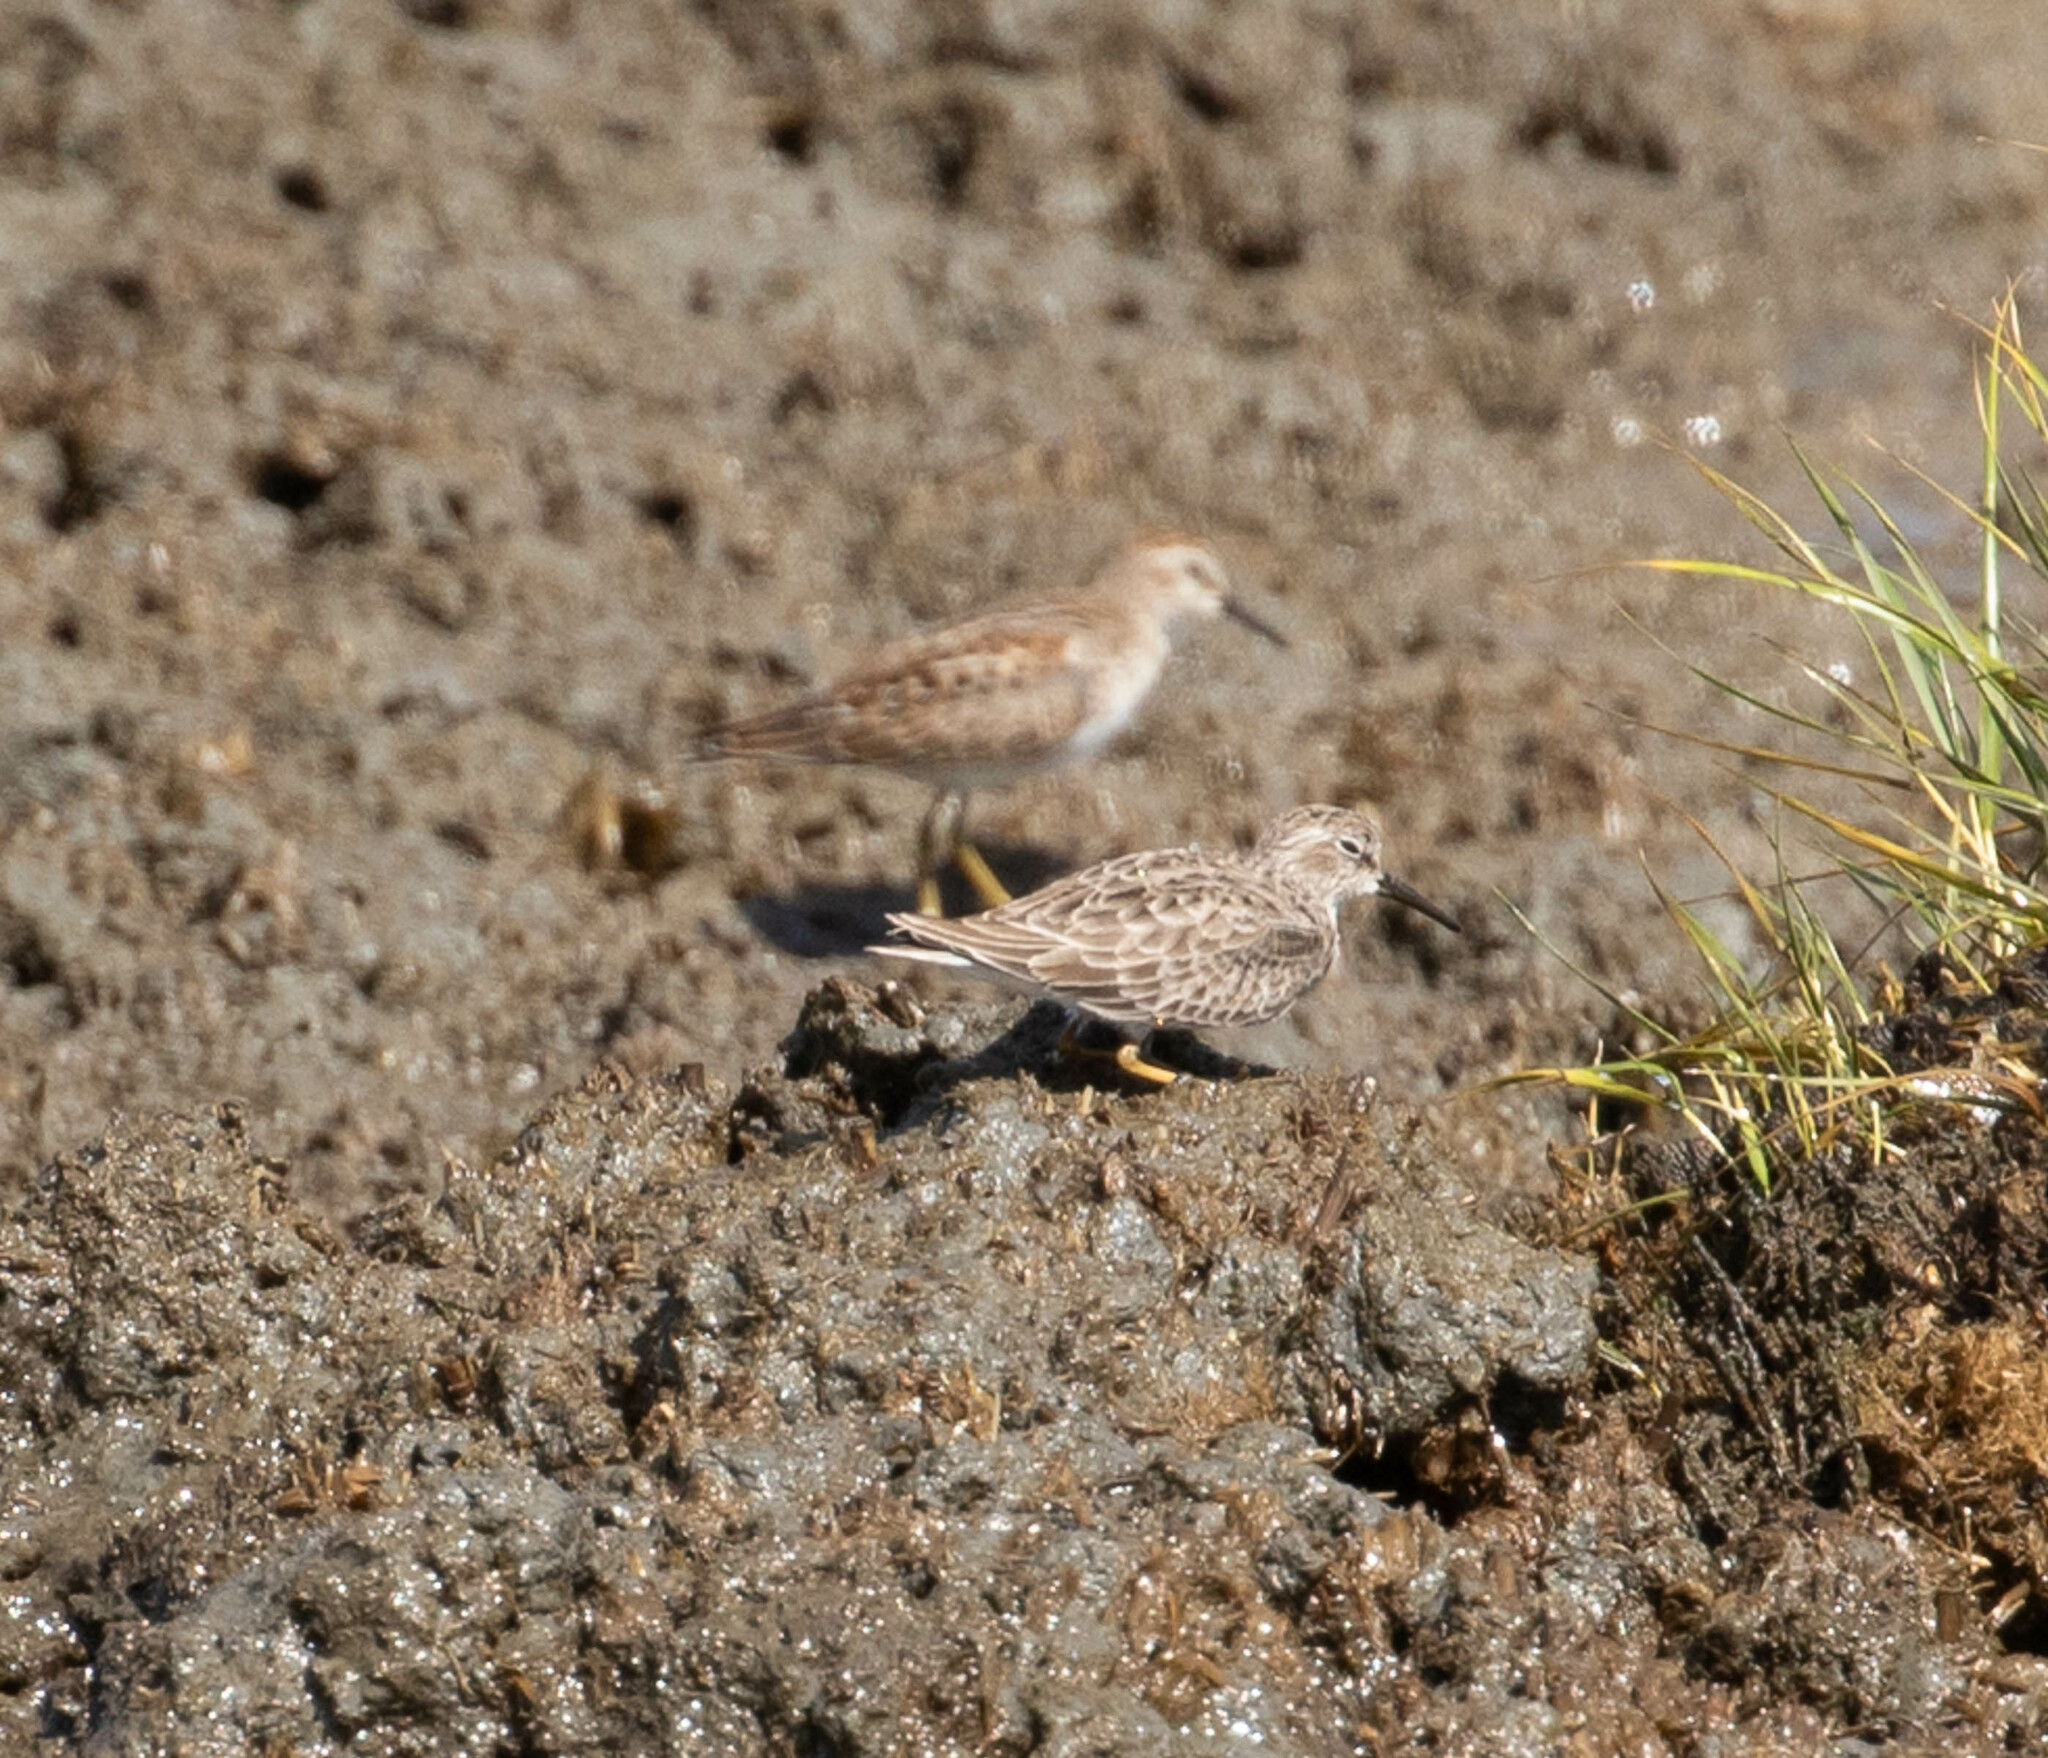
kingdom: Animalia
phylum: Chordata
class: Aves
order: Charadriiformes
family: Scolopacidae
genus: Calidris
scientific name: Calidris minutilla
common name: Least sandpiper
